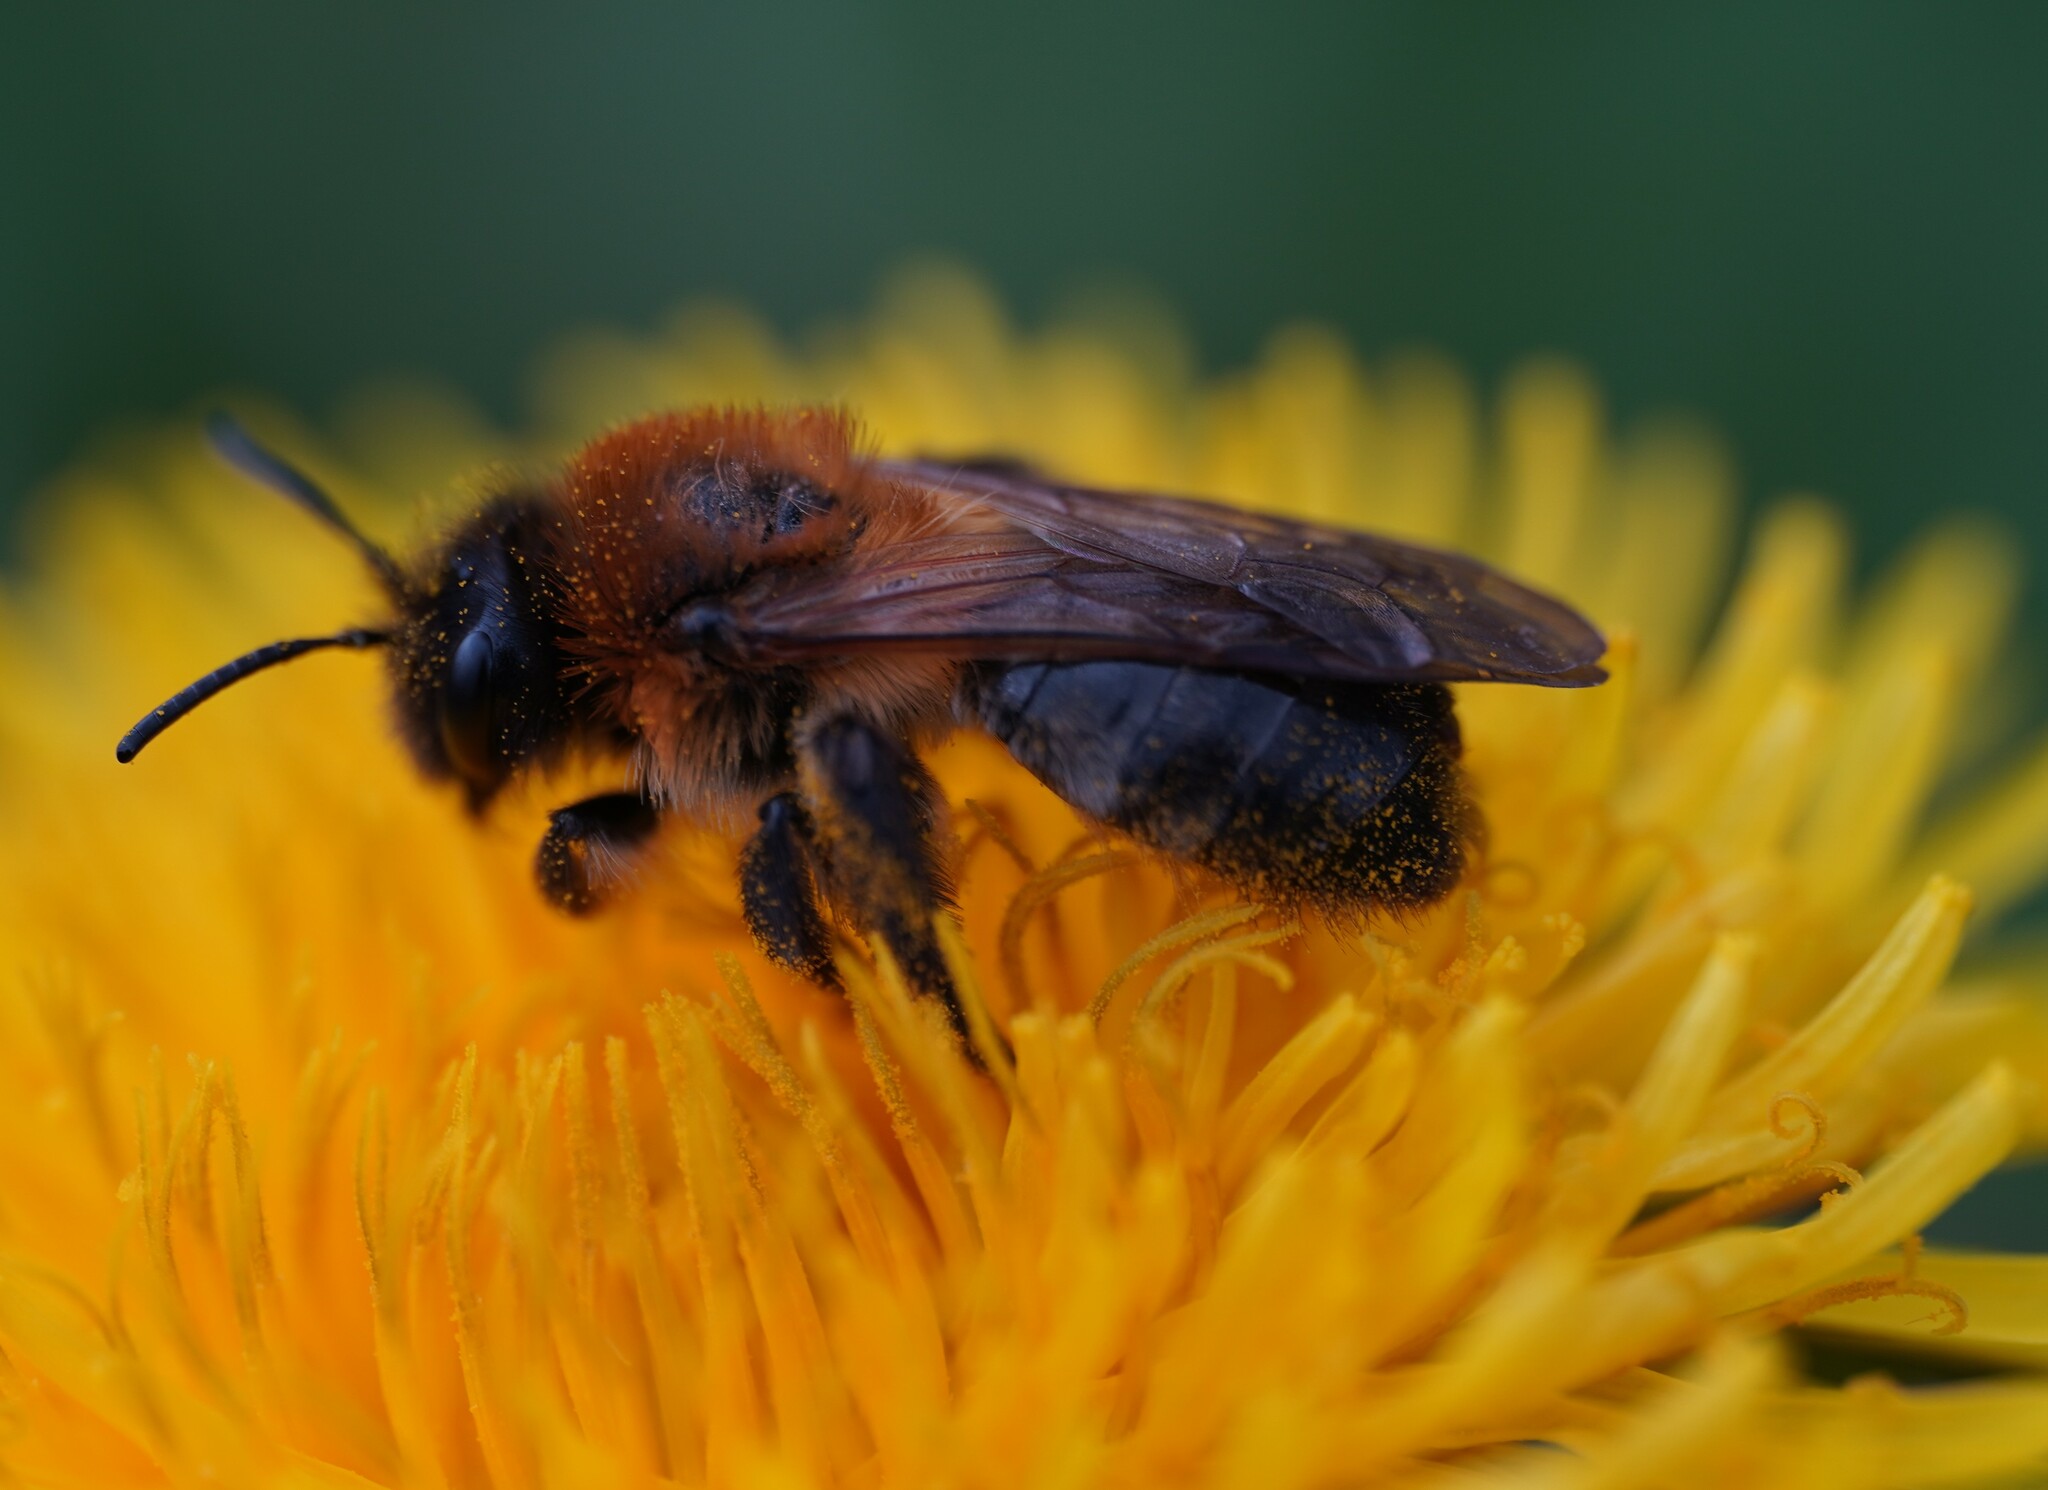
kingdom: Animalia
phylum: Arthropoda
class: Insecta
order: Hymenoptera
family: Andrenidae
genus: Andrena
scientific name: Andrena nitida
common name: Grey-patched mining bee
